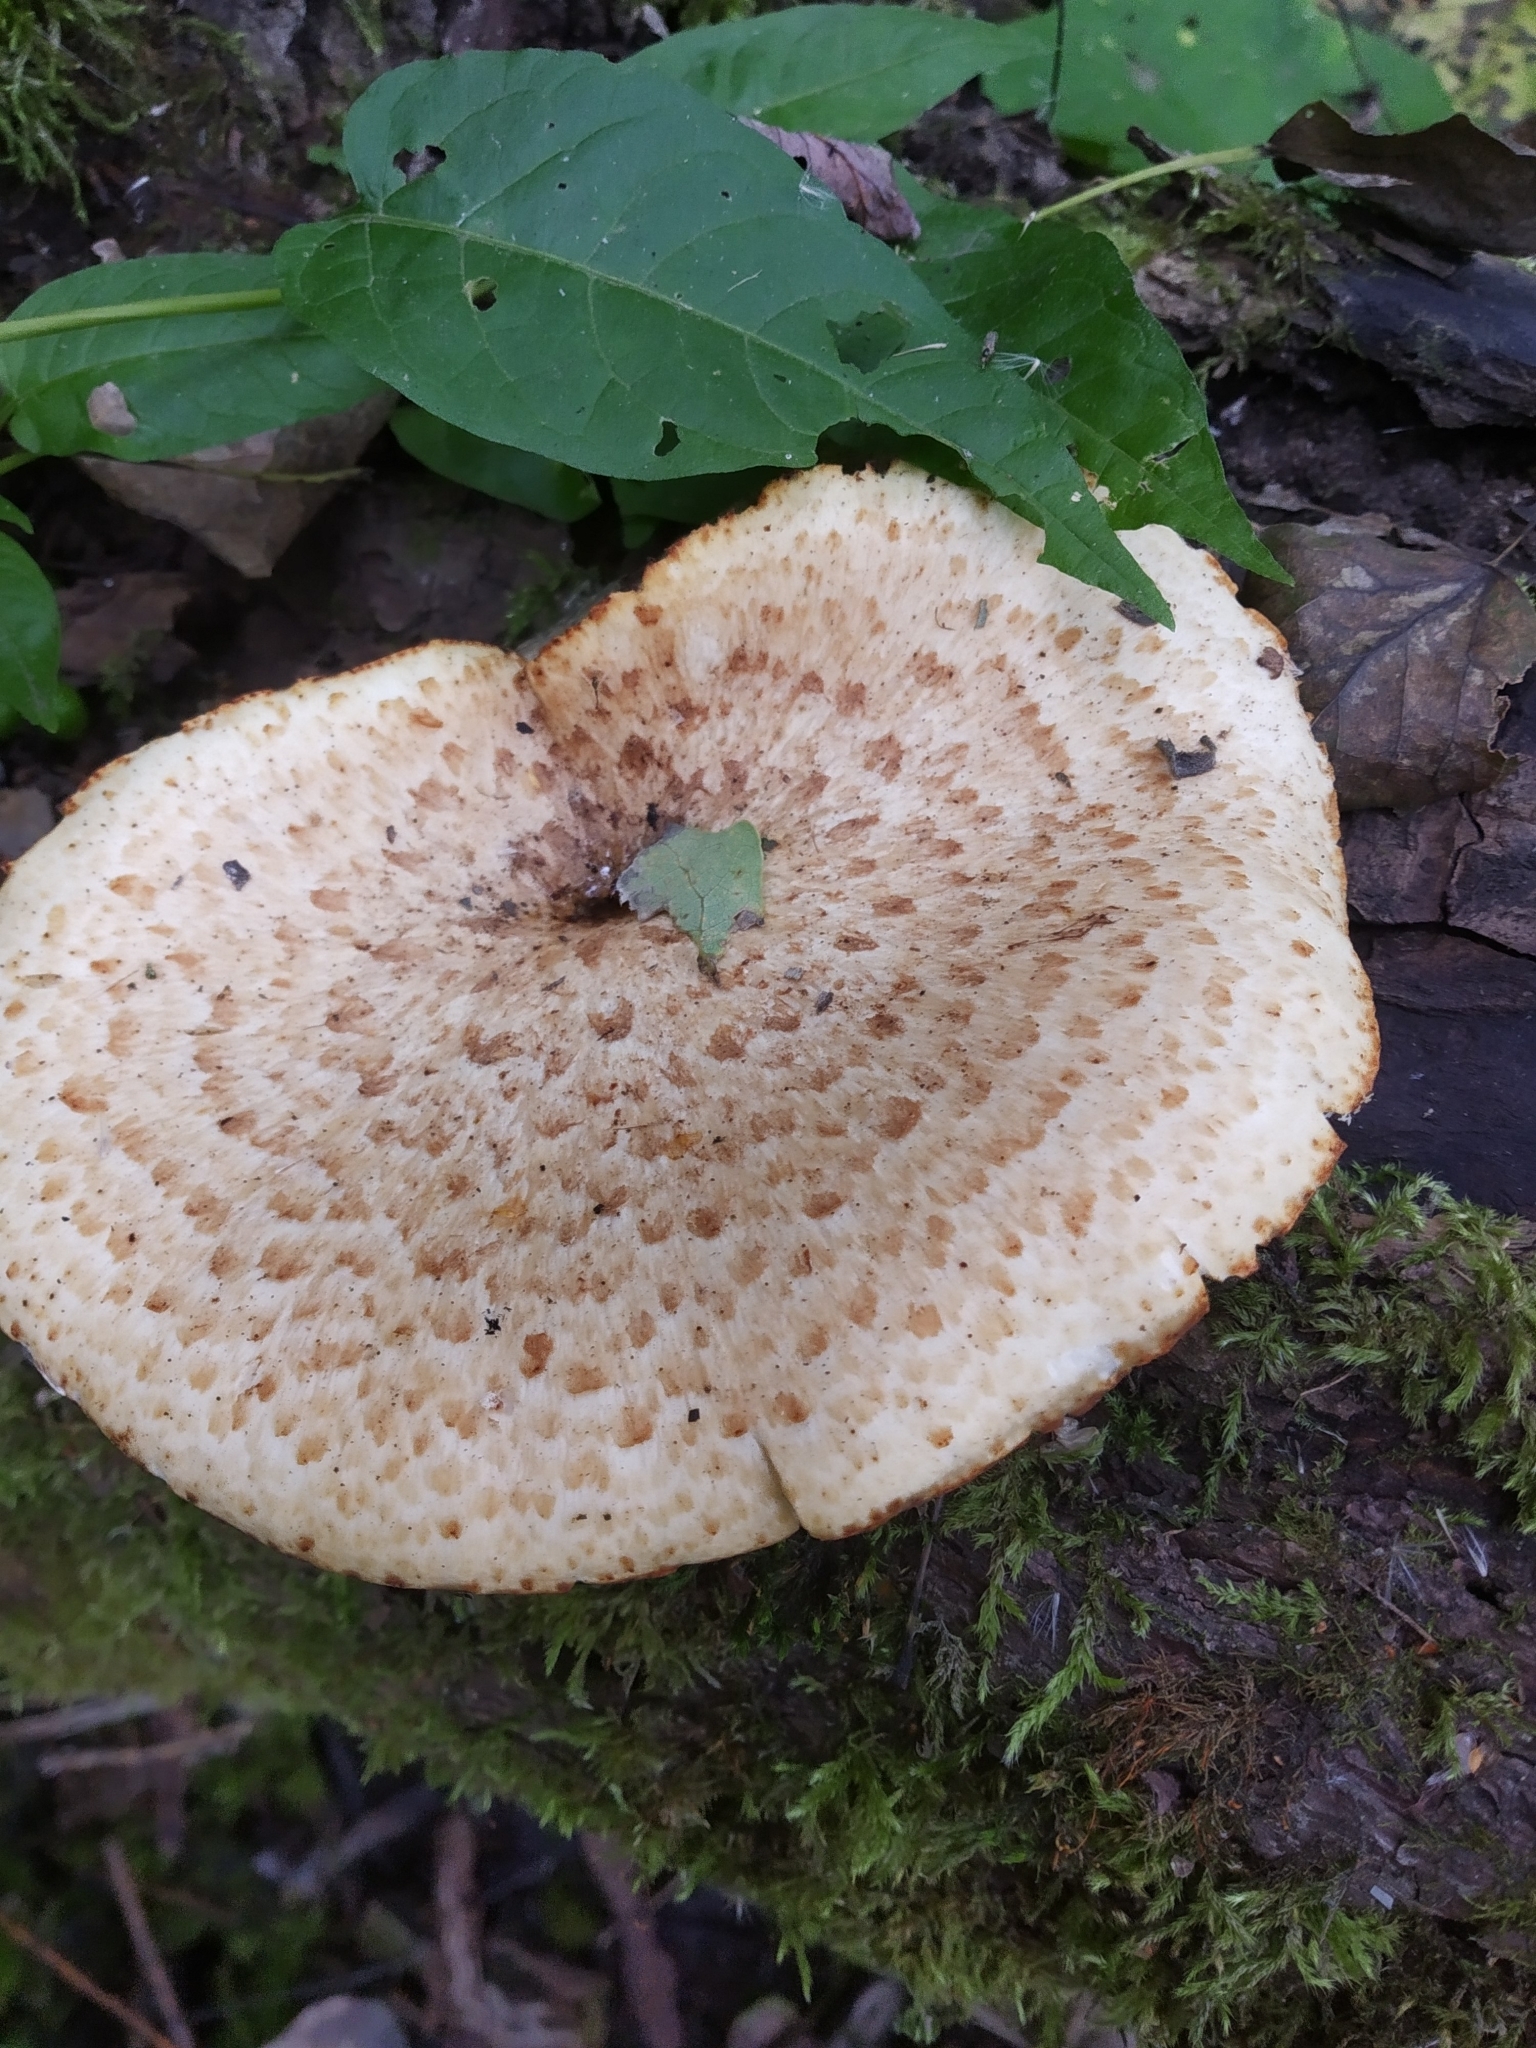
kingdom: Fungi
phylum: Basidiomycota
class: Agaricomycetes
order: Polyporales
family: Polyporaceae
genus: Cerioporus
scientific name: Cerioporus squamosus
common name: Dryad's saddle
